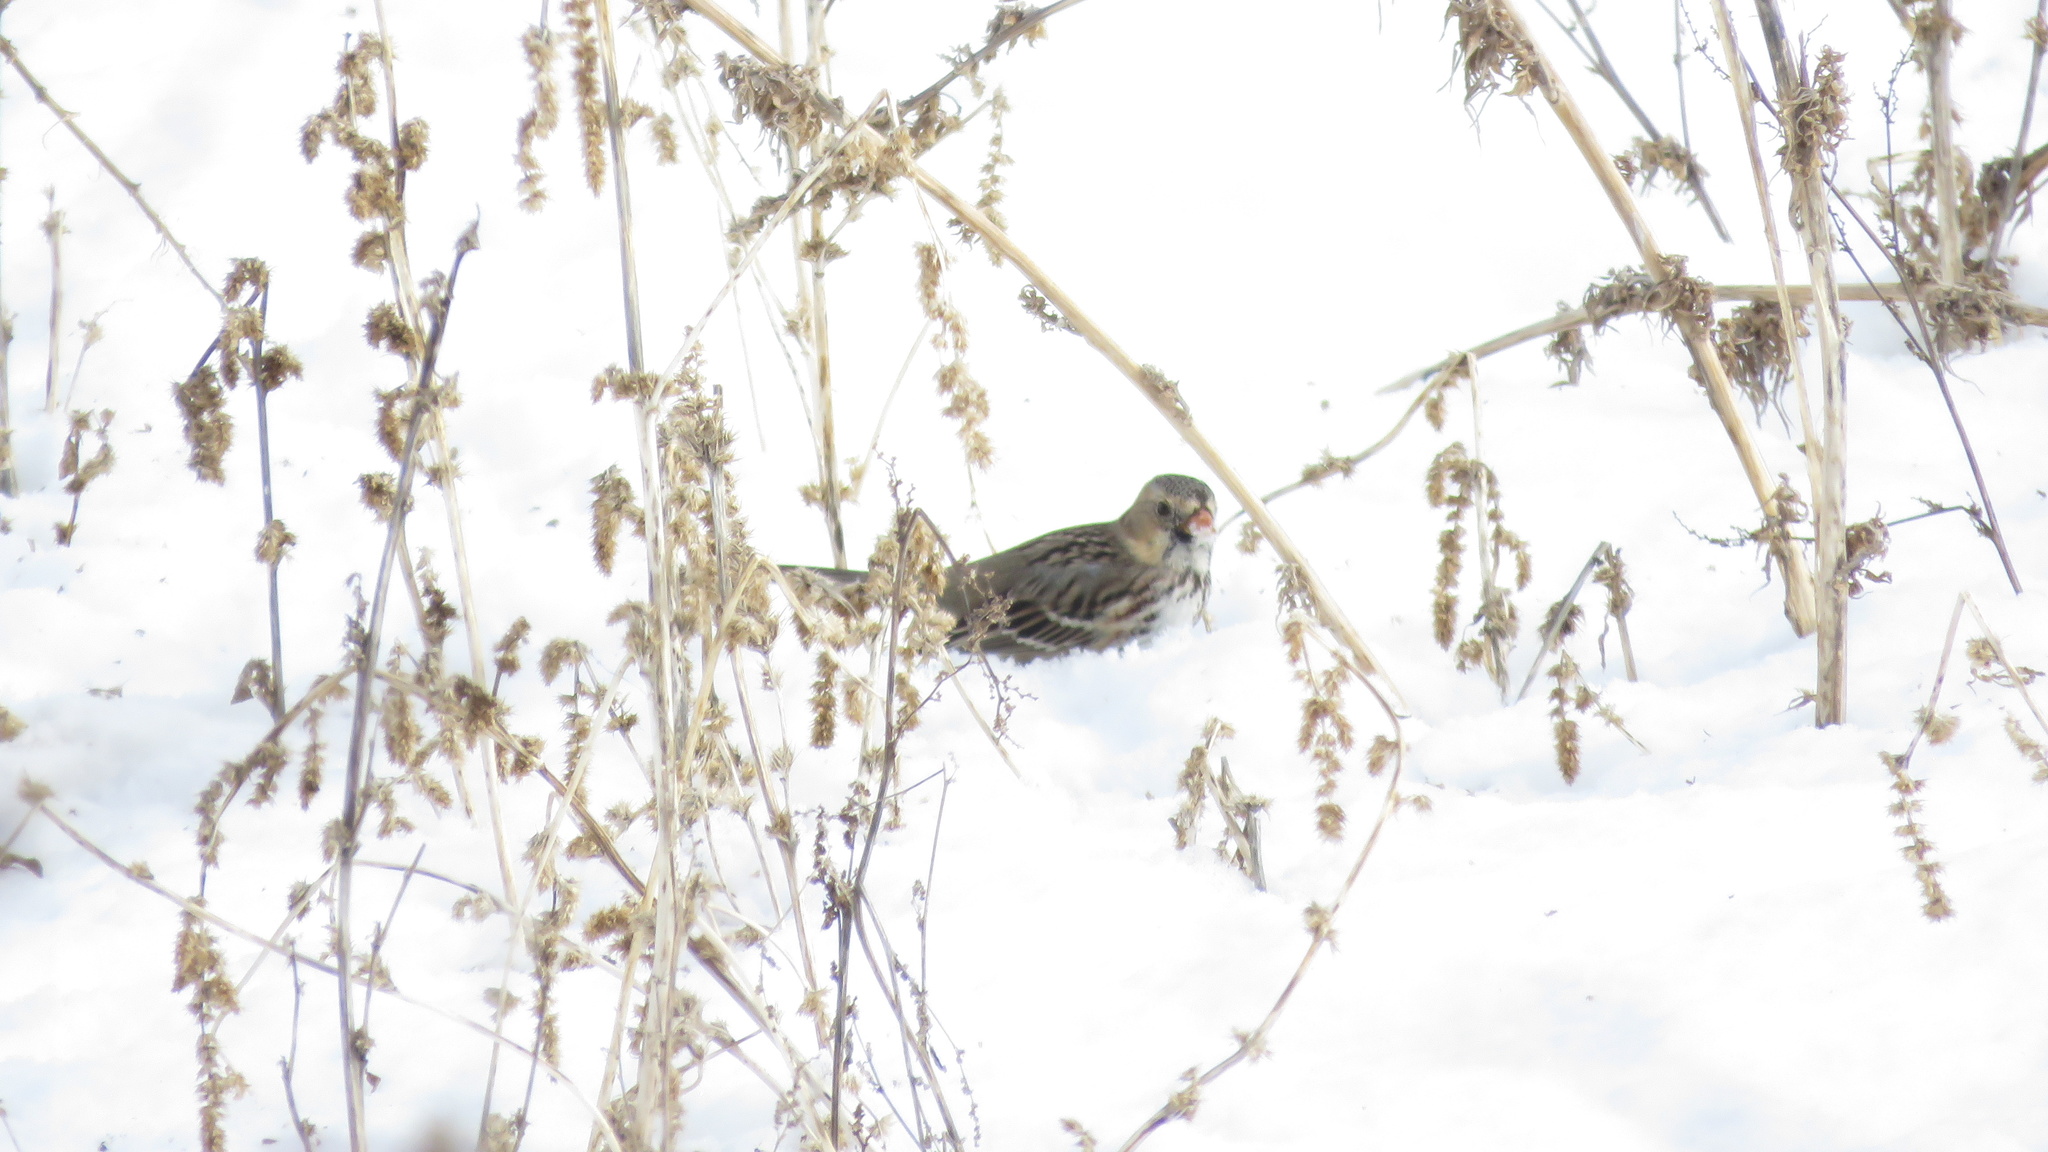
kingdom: Animalia
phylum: Chordata
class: Aves
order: Passeriformes
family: Passerellidae
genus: Zonotrichia
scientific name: Zonotrichia querula
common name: Harris's sparrow
